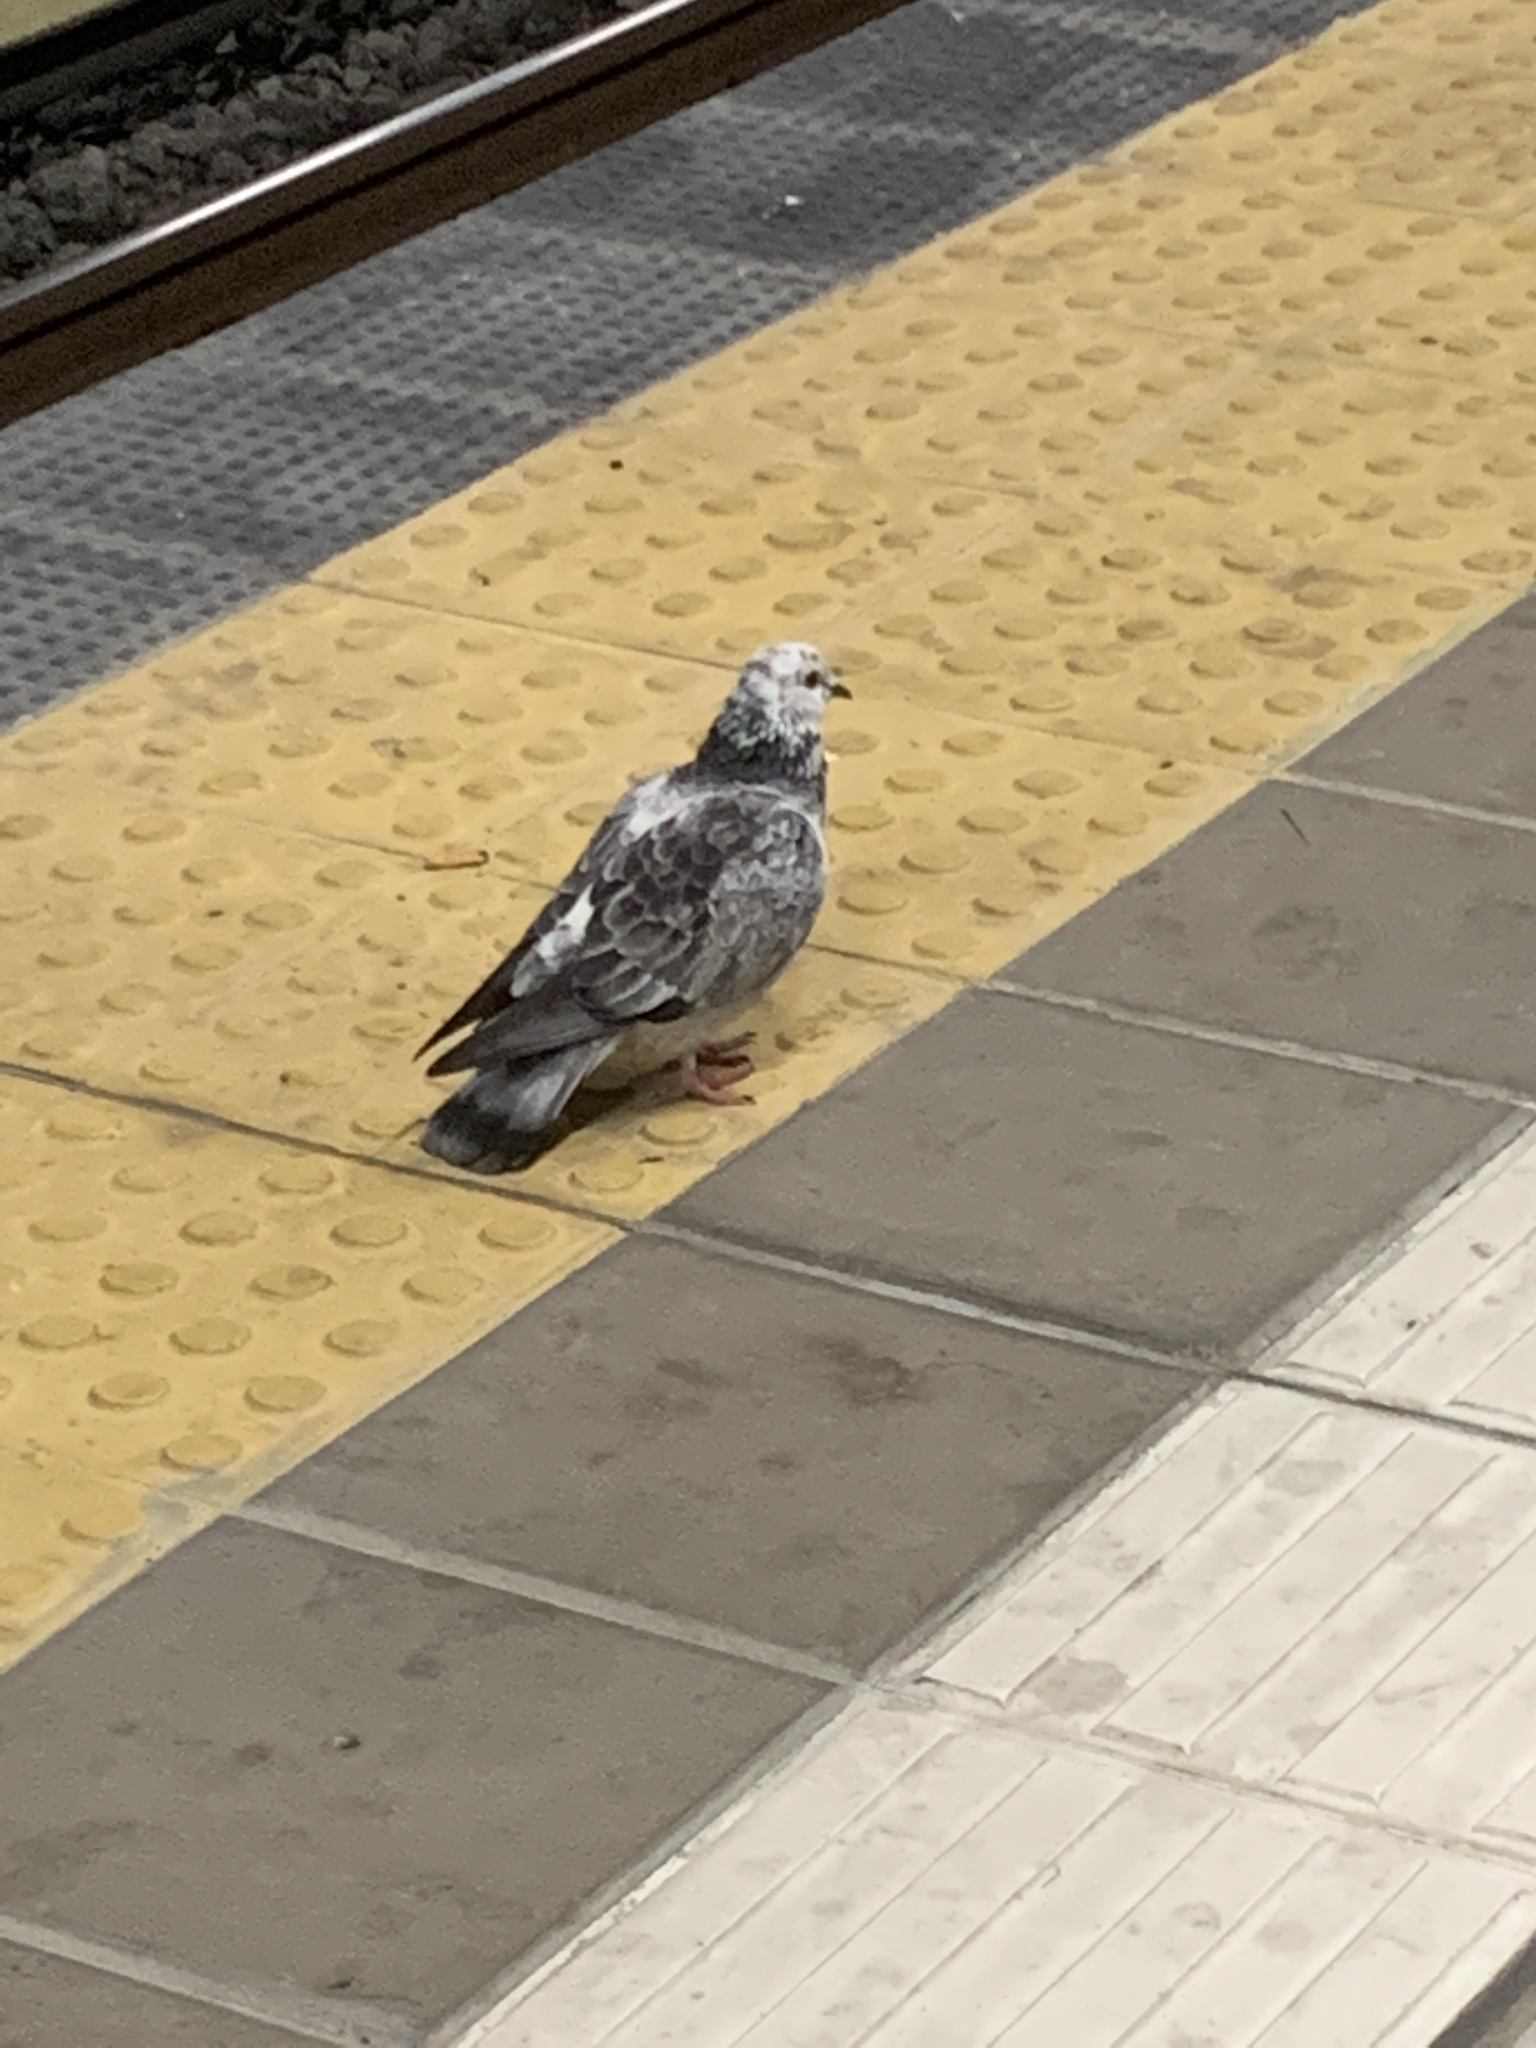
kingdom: Animalia
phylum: Chordata
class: Aves
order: Columbiformes
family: Columbidae
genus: Columba
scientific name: Columba livia
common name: Rock pigeon
